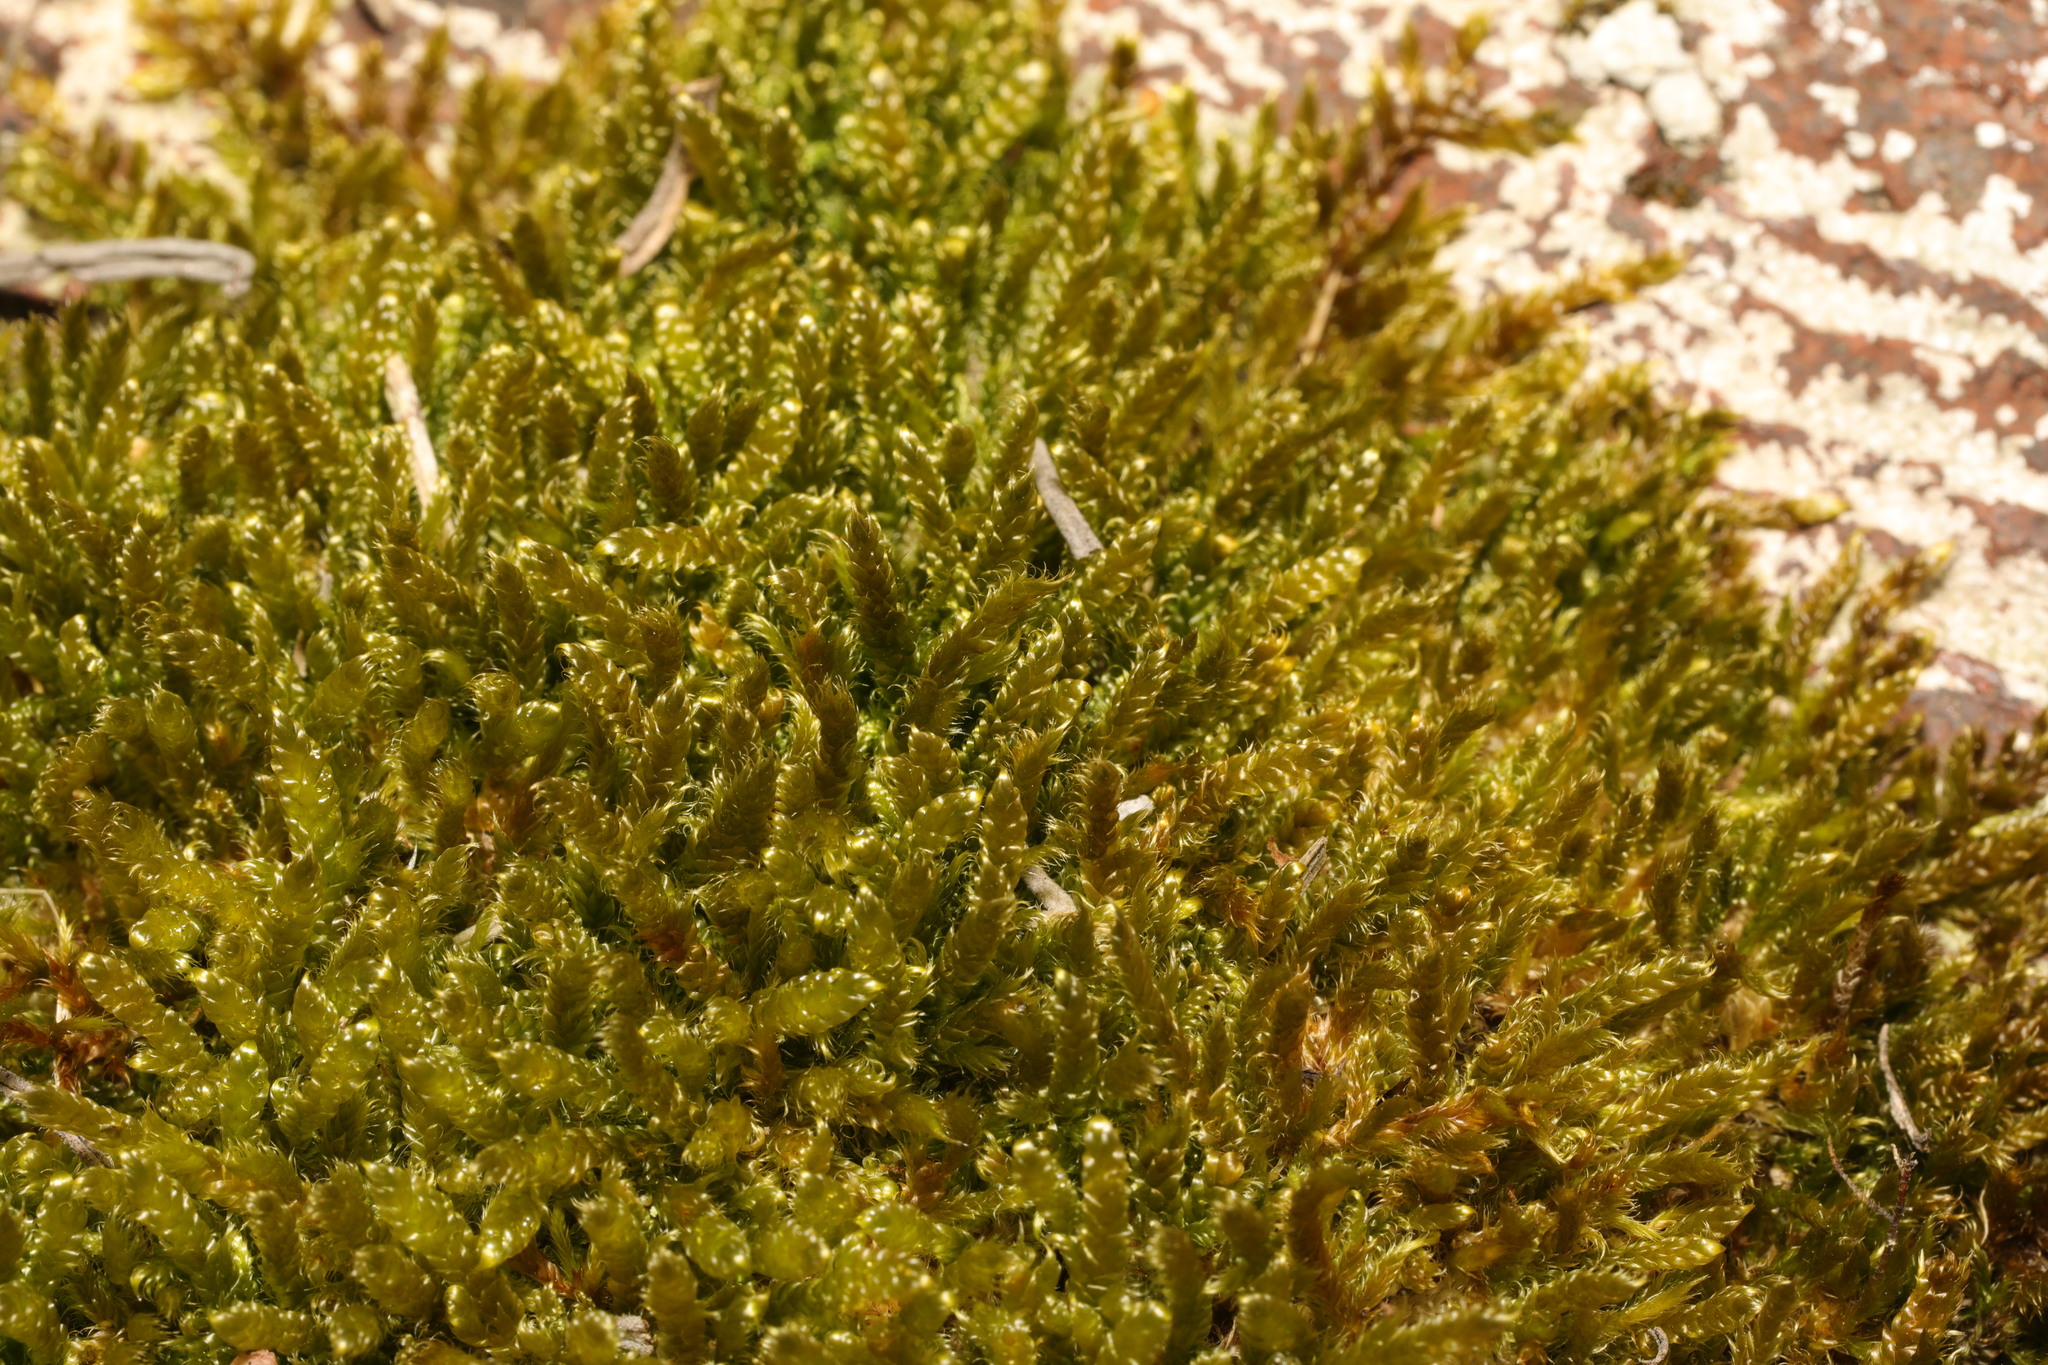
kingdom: Plantae
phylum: Bryophyta
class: Bryopsida
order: Hypnales
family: Hypnaceae
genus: Hypnum
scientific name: Hypnum cupressiforme
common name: Cypress-leaved plait-moss
